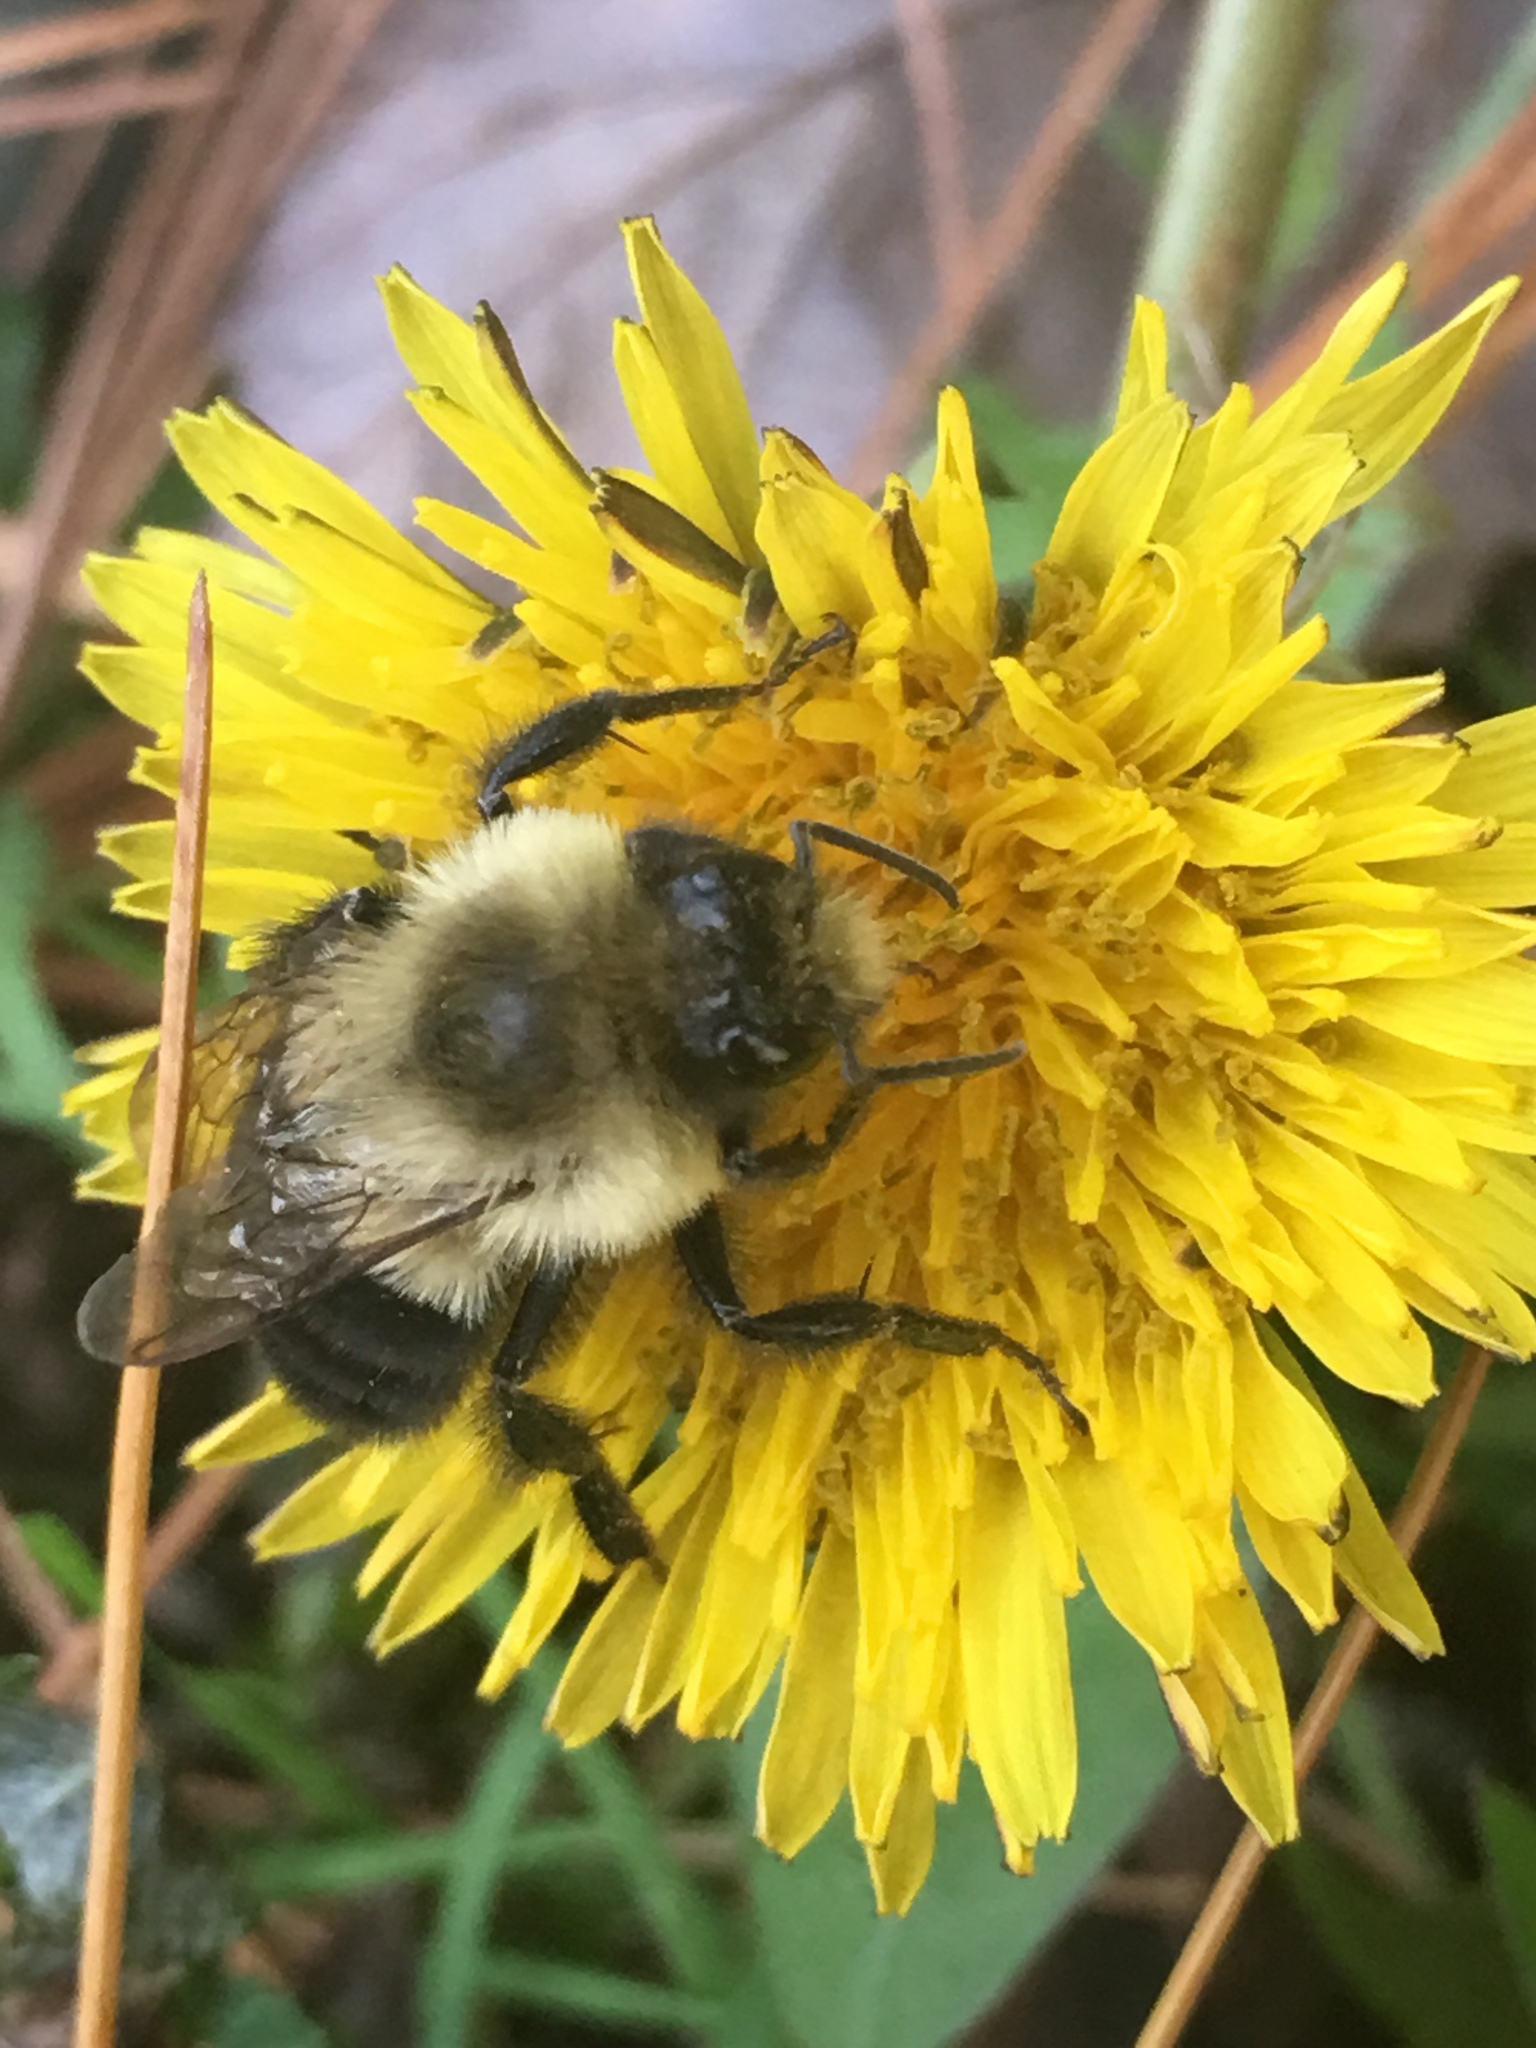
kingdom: Animalia
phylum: Arthropoda
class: Insecta
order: Hymenoptera
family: Apidae
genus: Bombus
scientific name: Bombus impatiens
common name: Common eastern bumble bee
